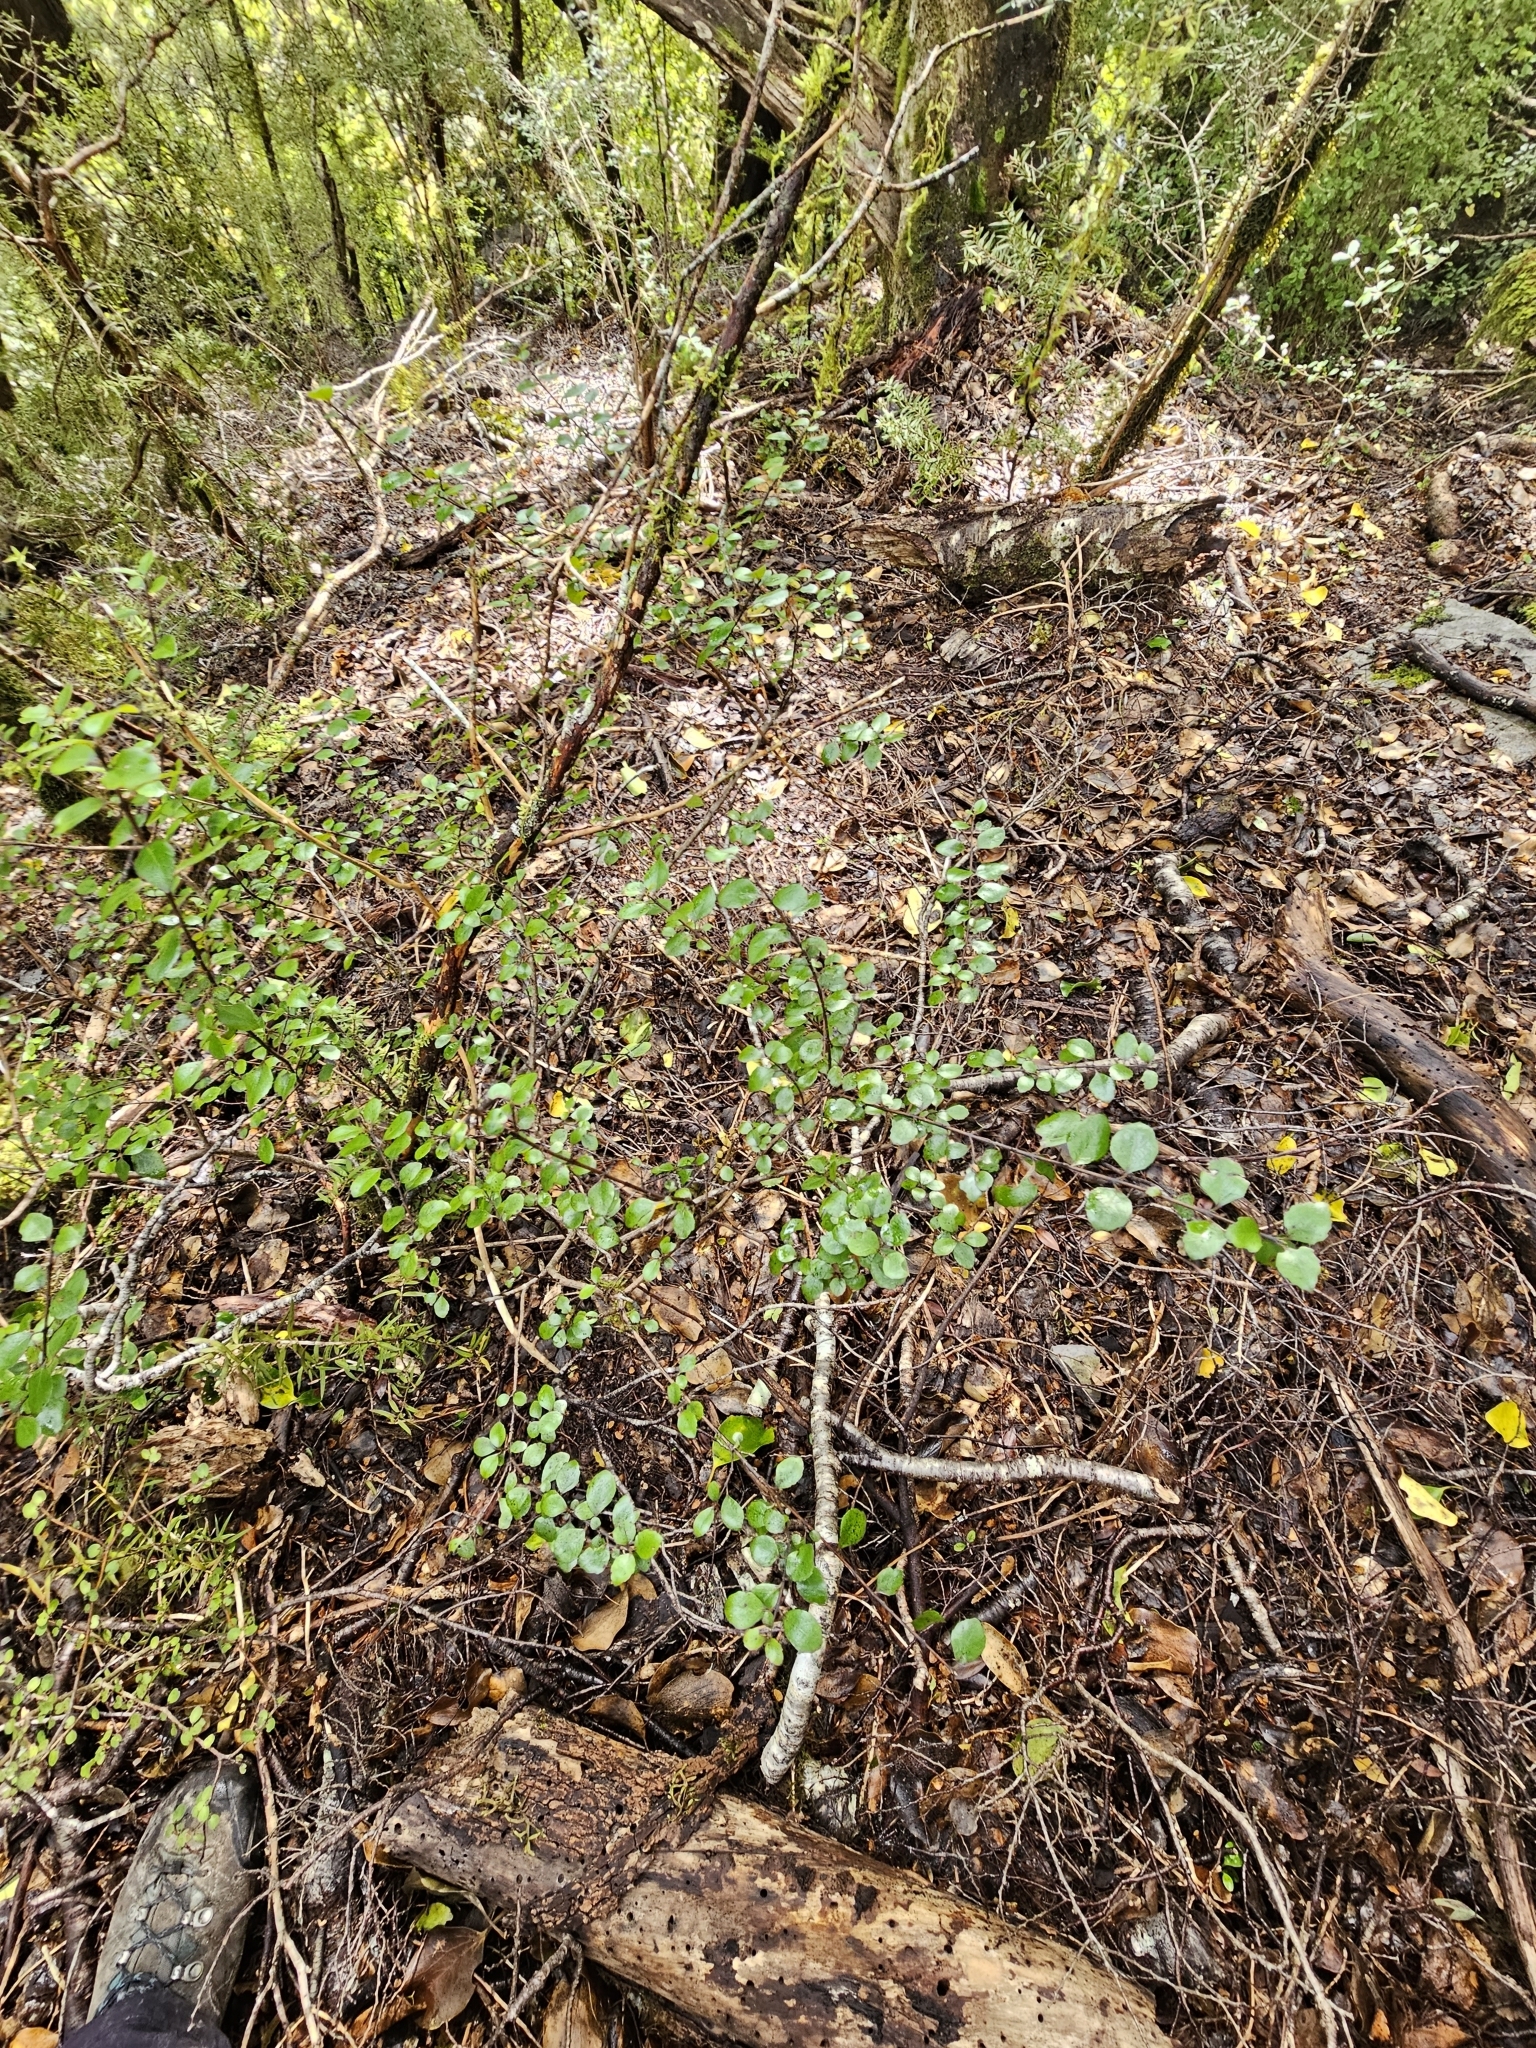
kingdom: Plantae
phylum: Tracheophyta
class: Magnoliopsida
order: Ericales
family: Ericaceae
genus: Gaultheria
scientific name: Gaultheria antipoda
